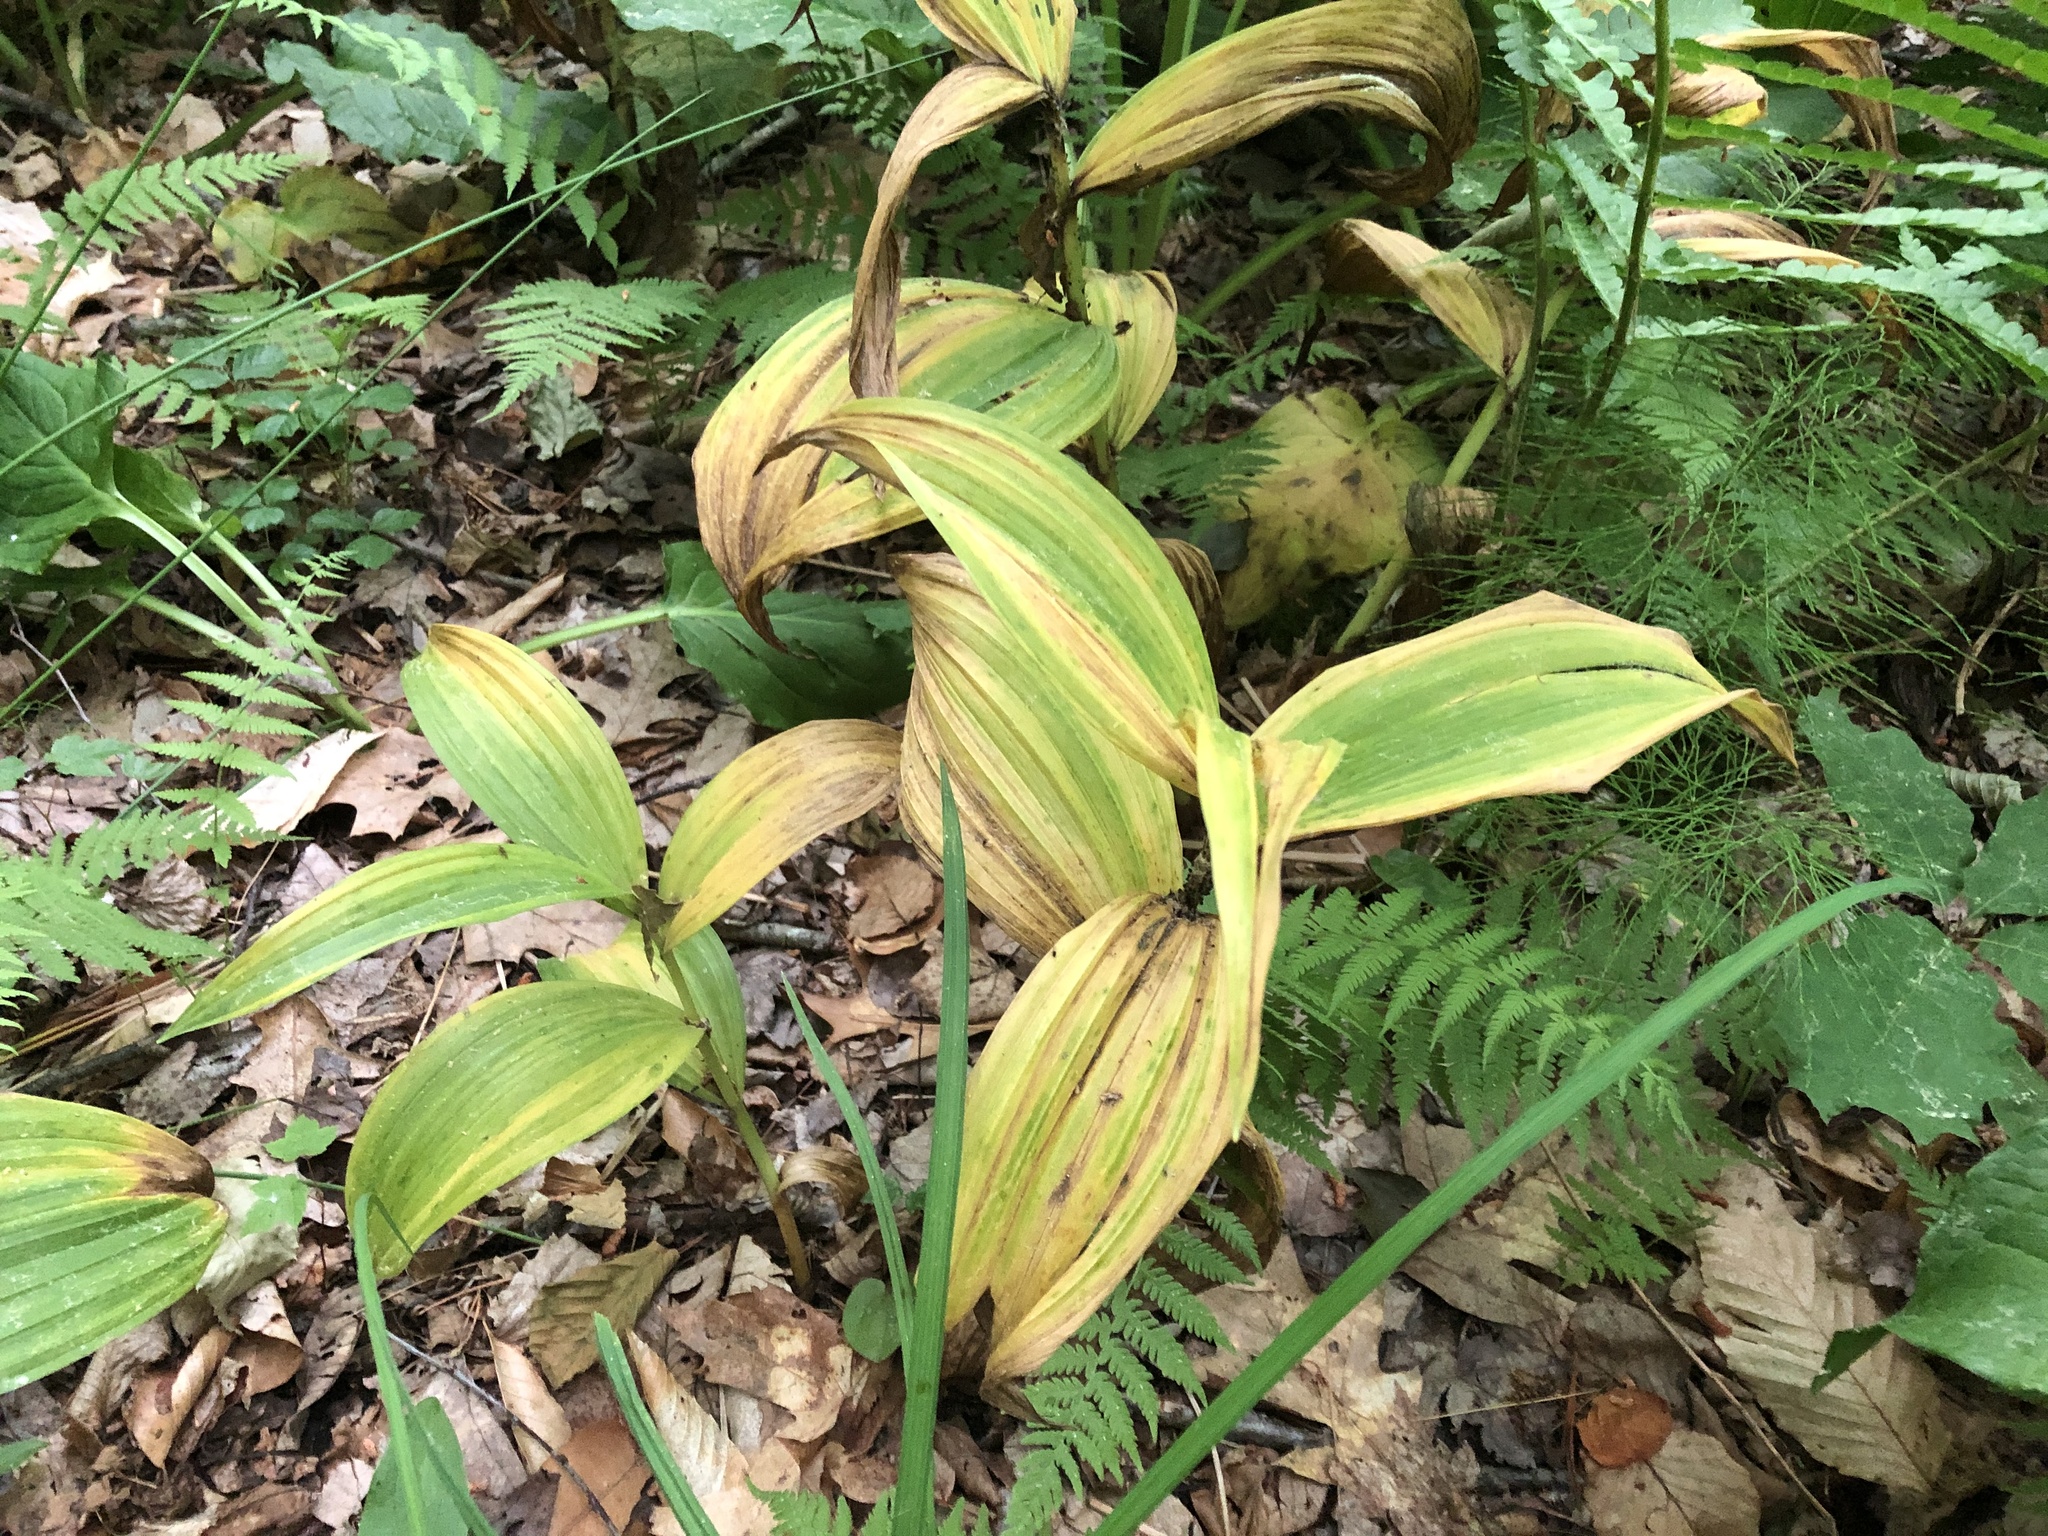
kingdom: Plantae
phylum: Tracheophyta
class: Liliopsida
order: Liliales
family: Melanthiaceae
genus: Veratrum
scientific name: Veratrum viride
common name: American false hellebore
